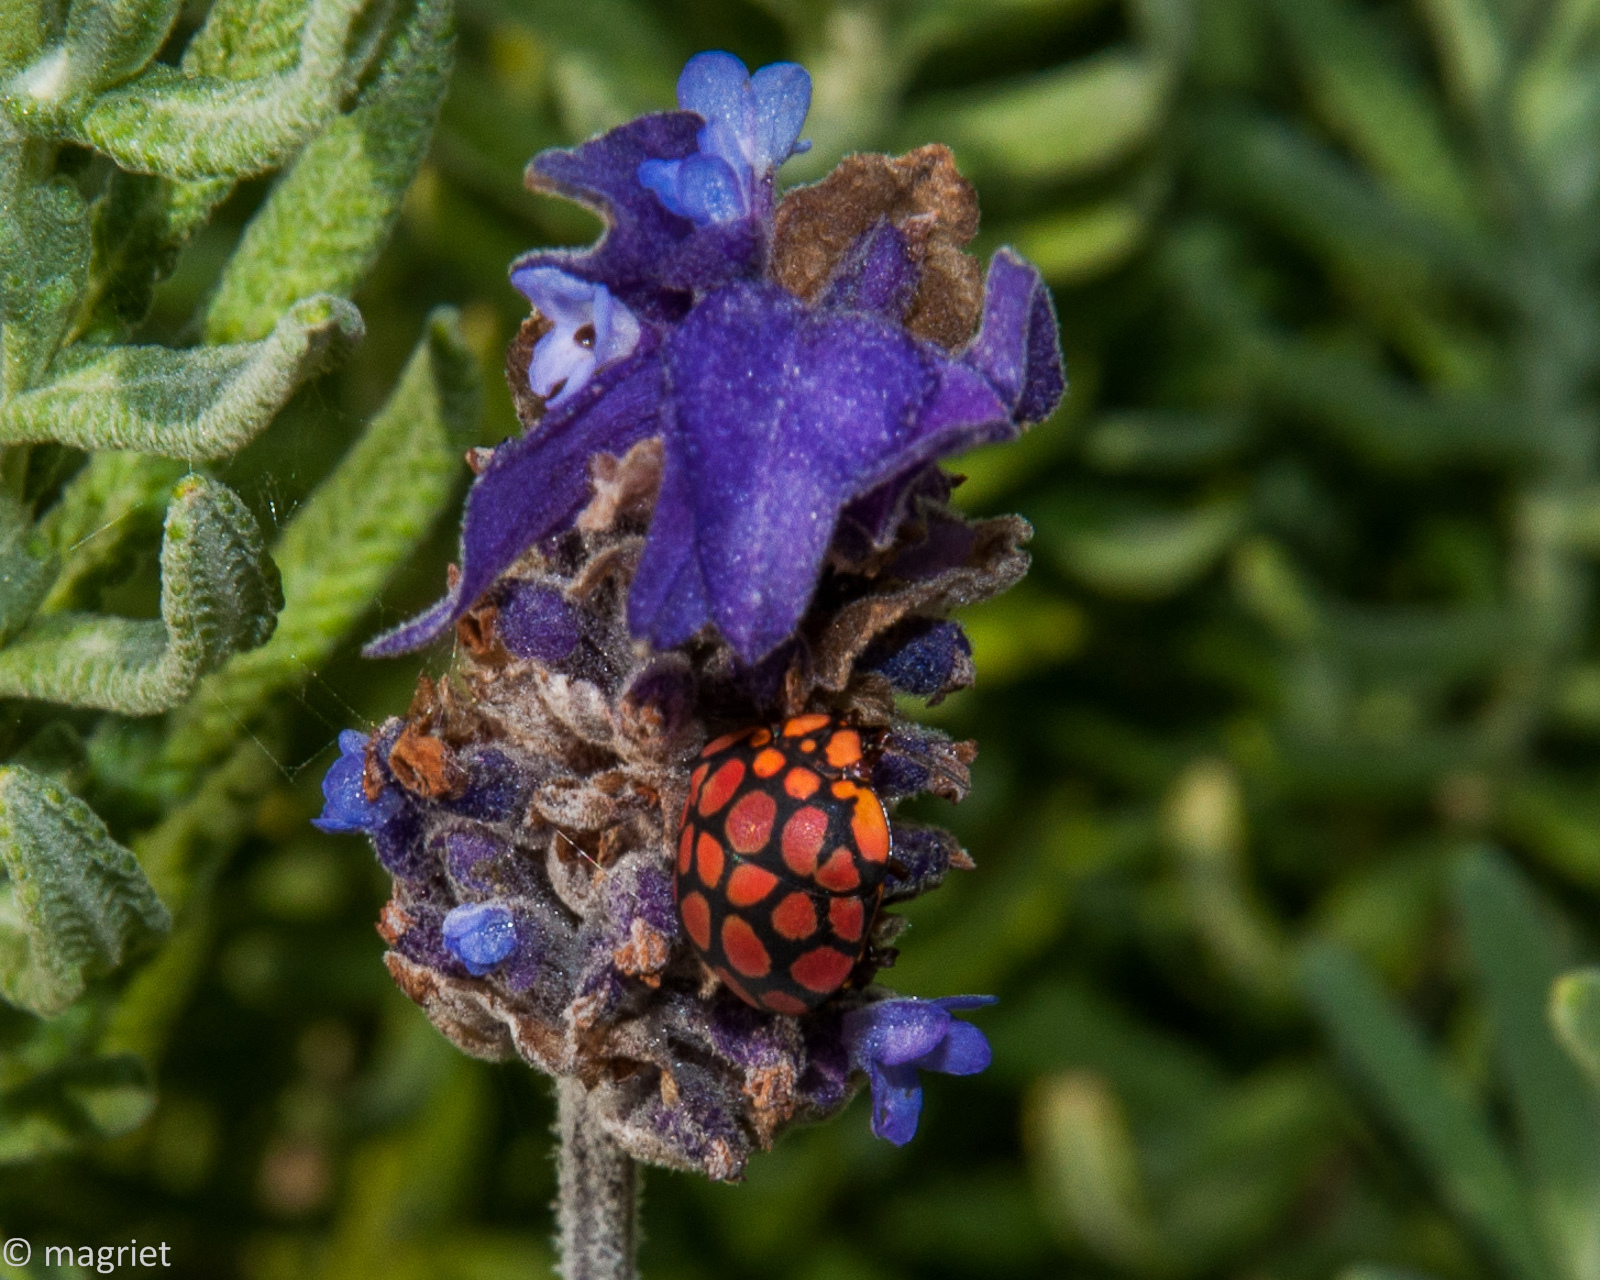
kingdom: Animalia
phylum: Arthropoda
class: Insecta
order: Hemiptera
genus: Steganocerus
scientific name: Steganocerus multipunctatus
